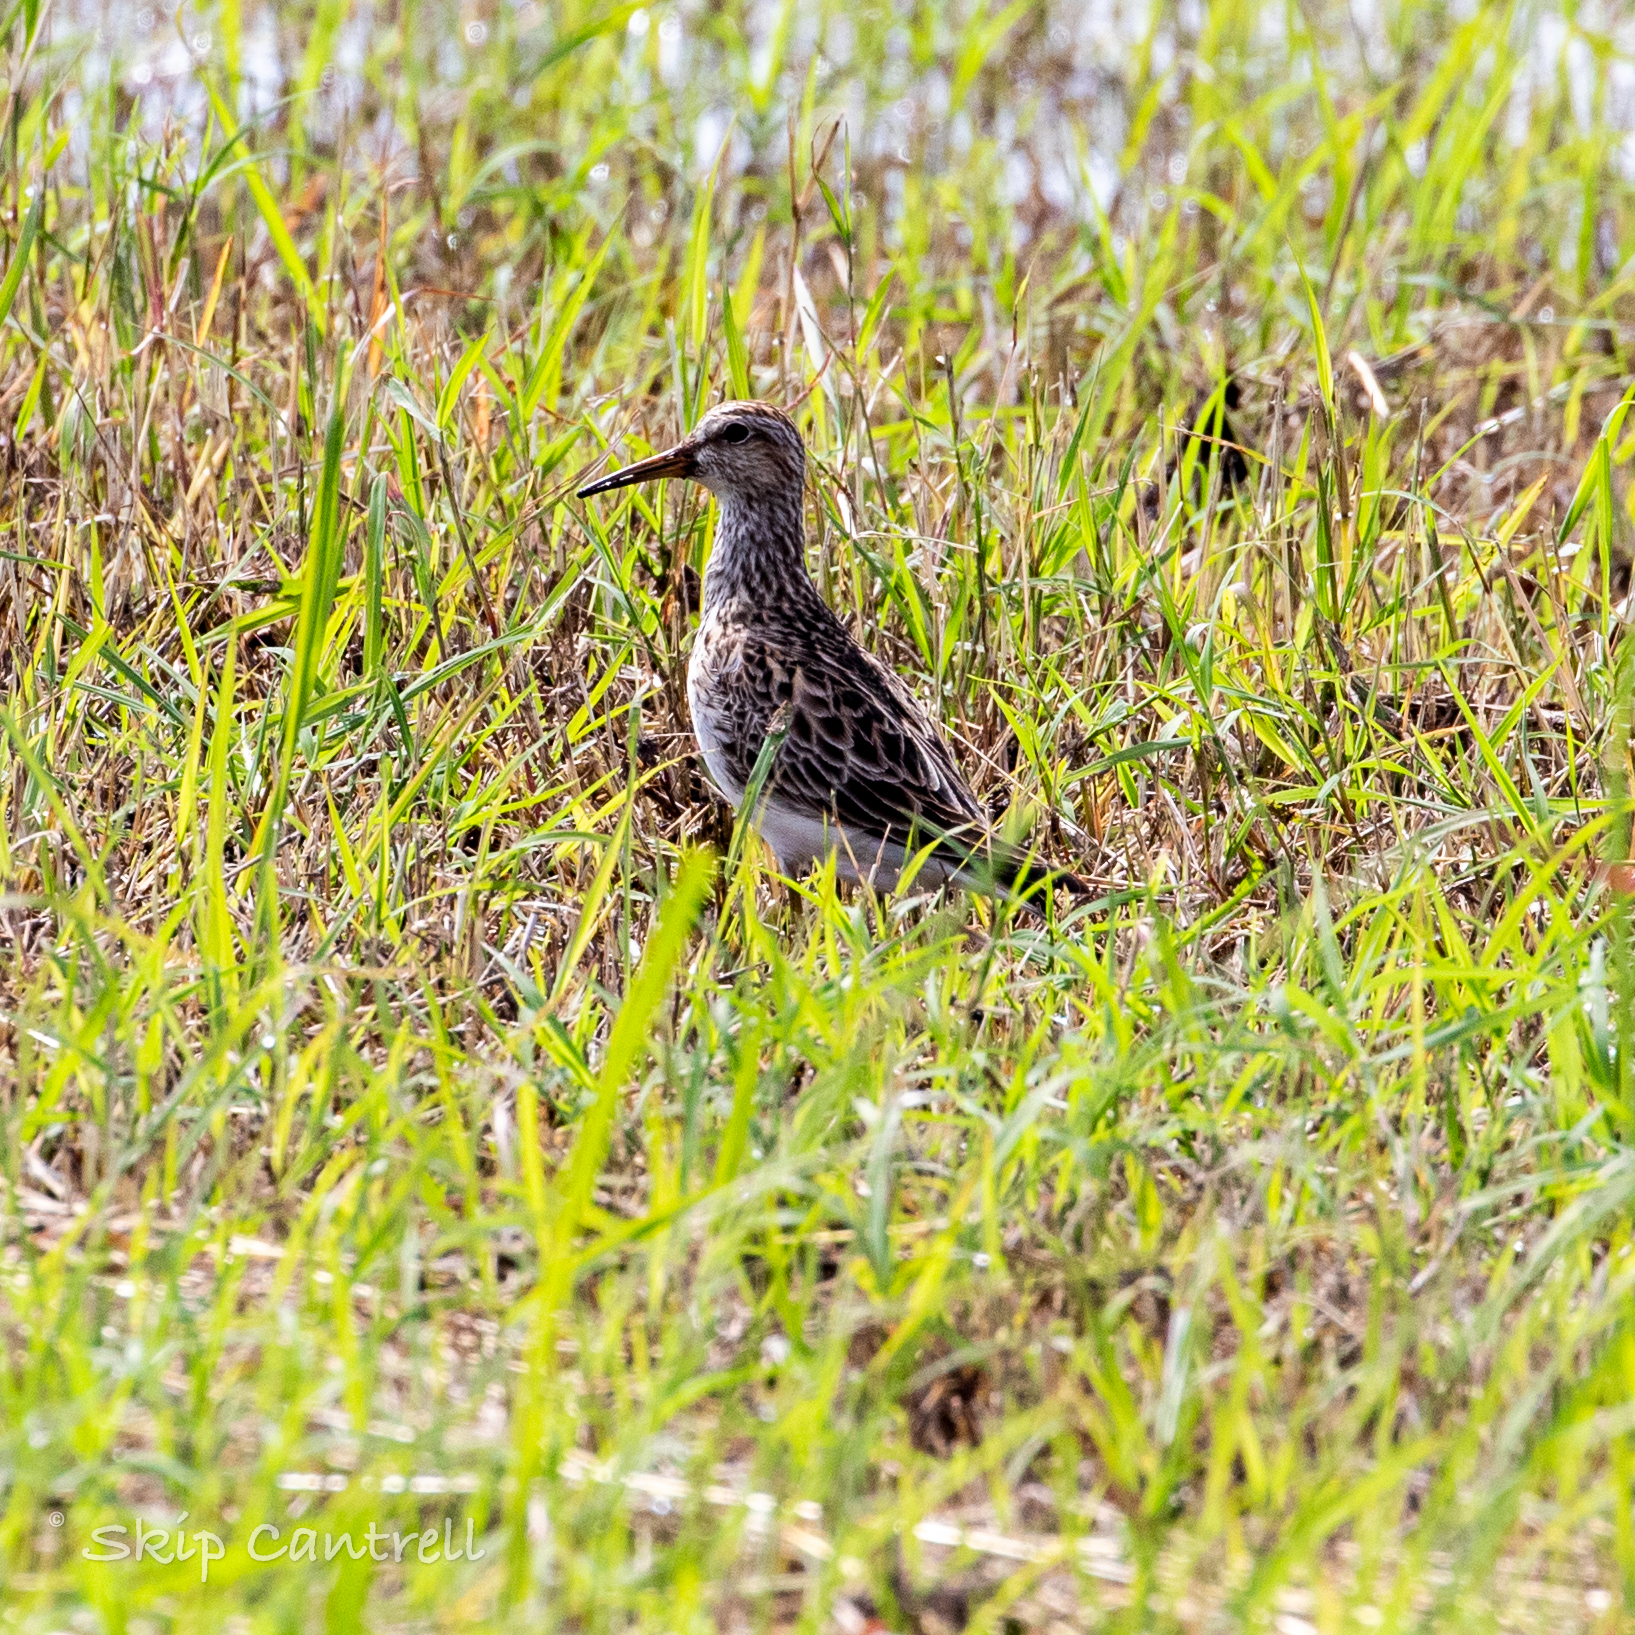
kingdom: Animalia
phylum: Chordata
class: Aves
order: Charadriiformes
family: Scolopacidae
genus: Calidris
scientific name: Calidris melanotos
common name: Pectoral sandpiper
